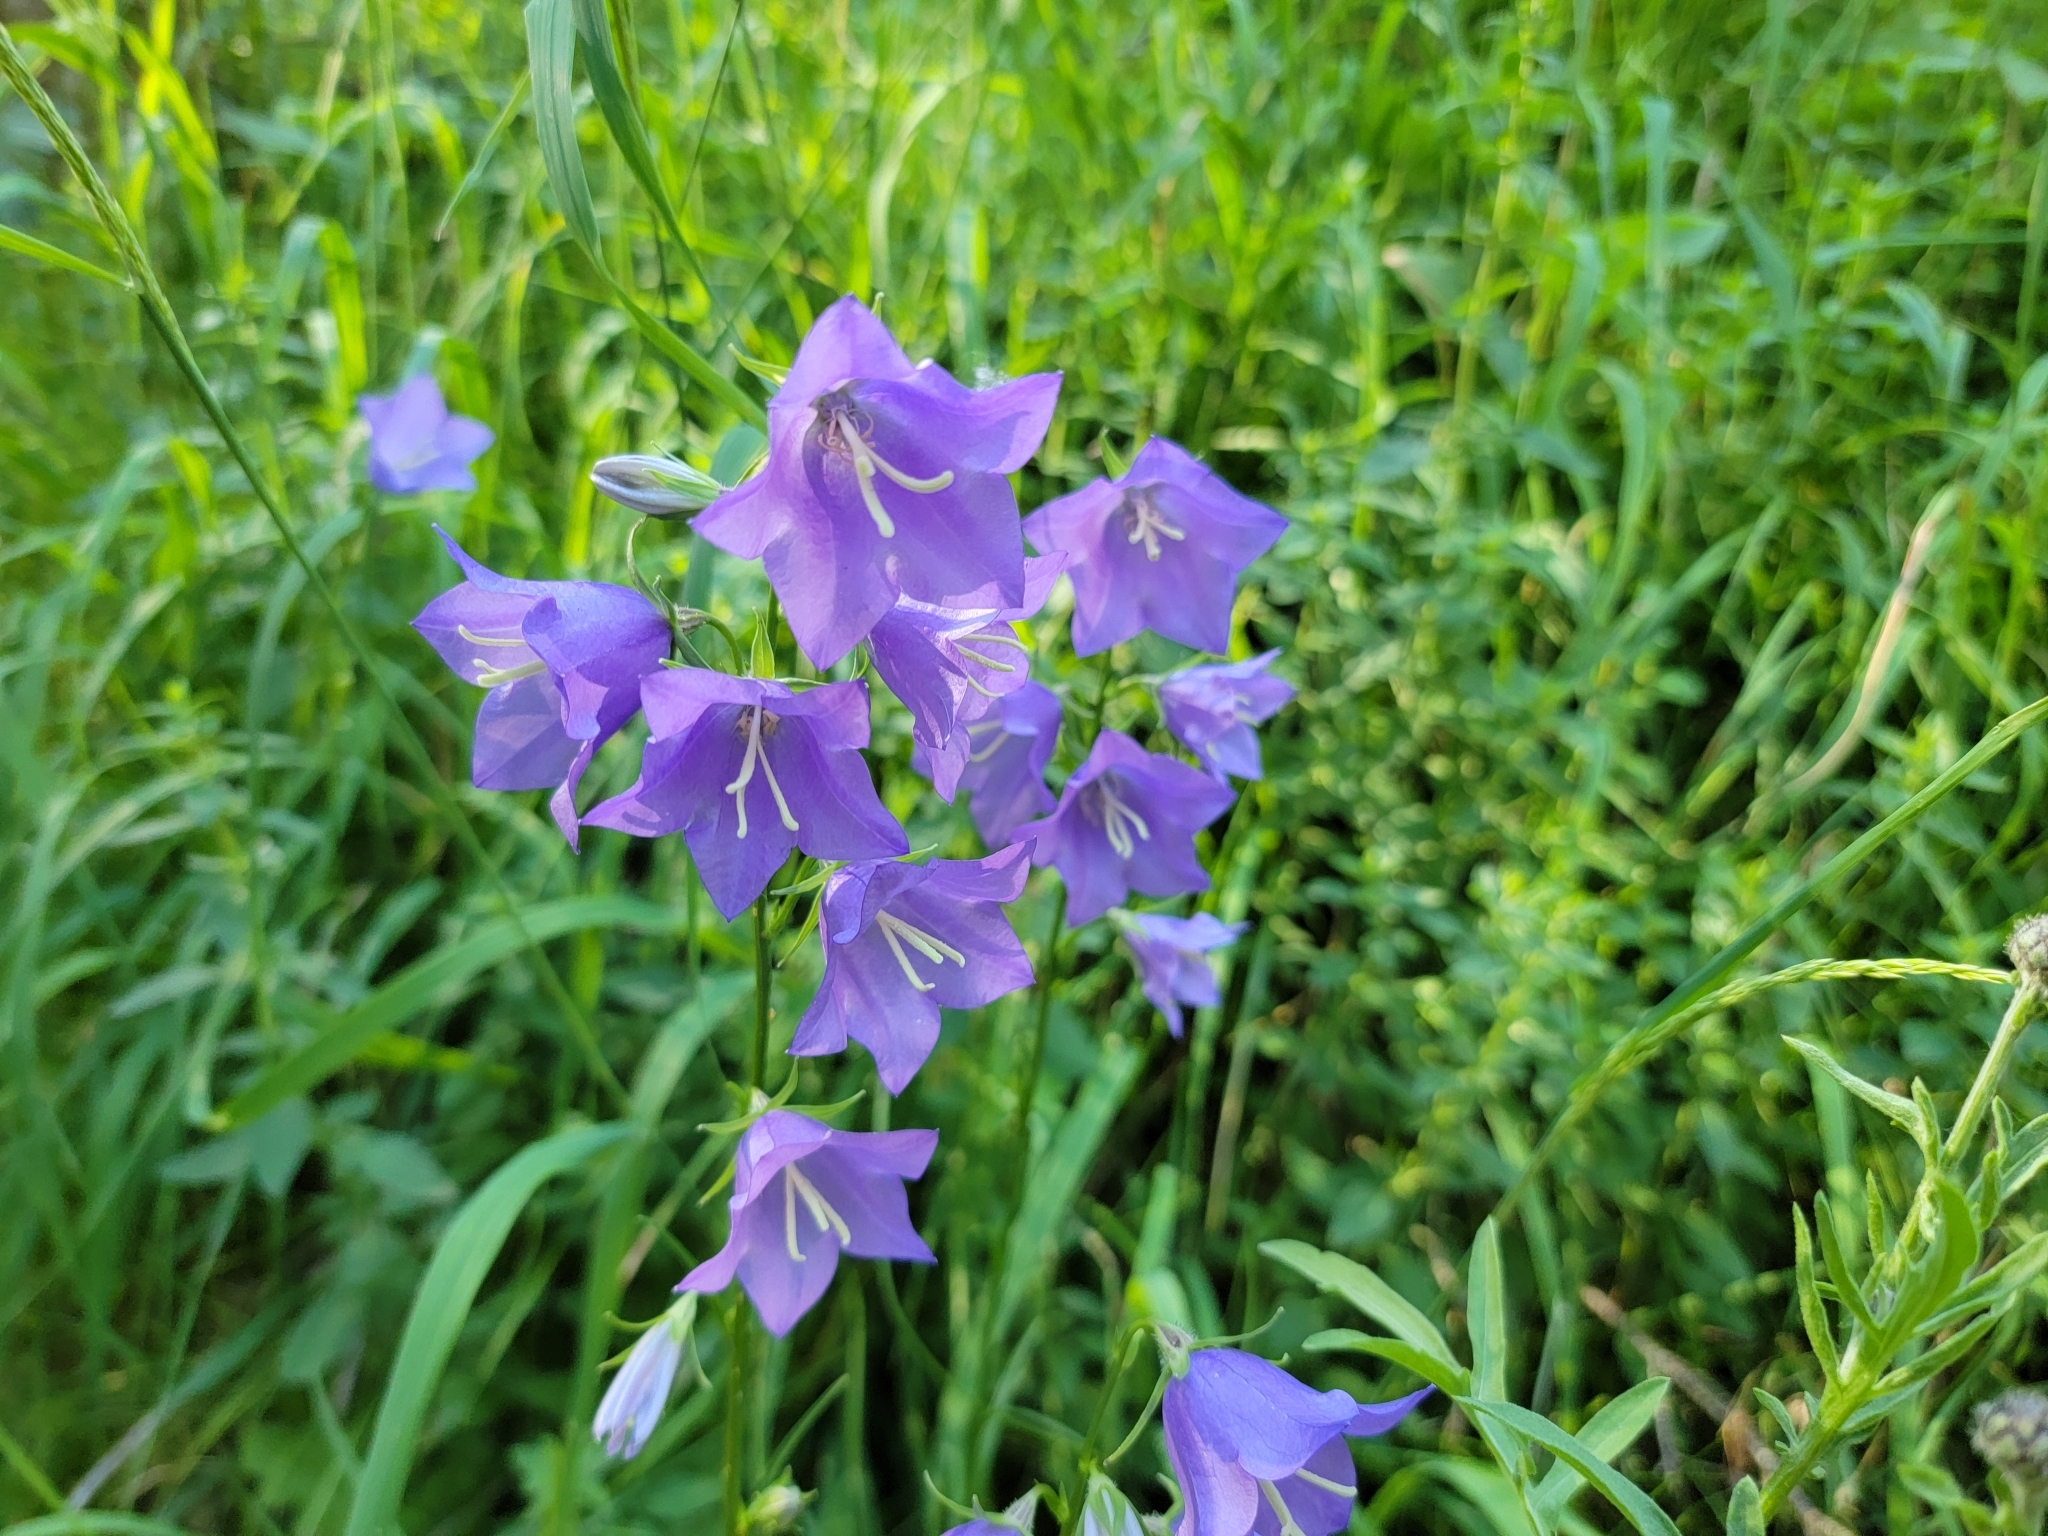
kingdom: Plantae
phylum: Tracheophyta
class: Magnoliopsida
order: Asterales
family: Campanulaceae
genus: Campanula
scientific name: Campanula persicifolia
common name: Peach-leaved bellflower
